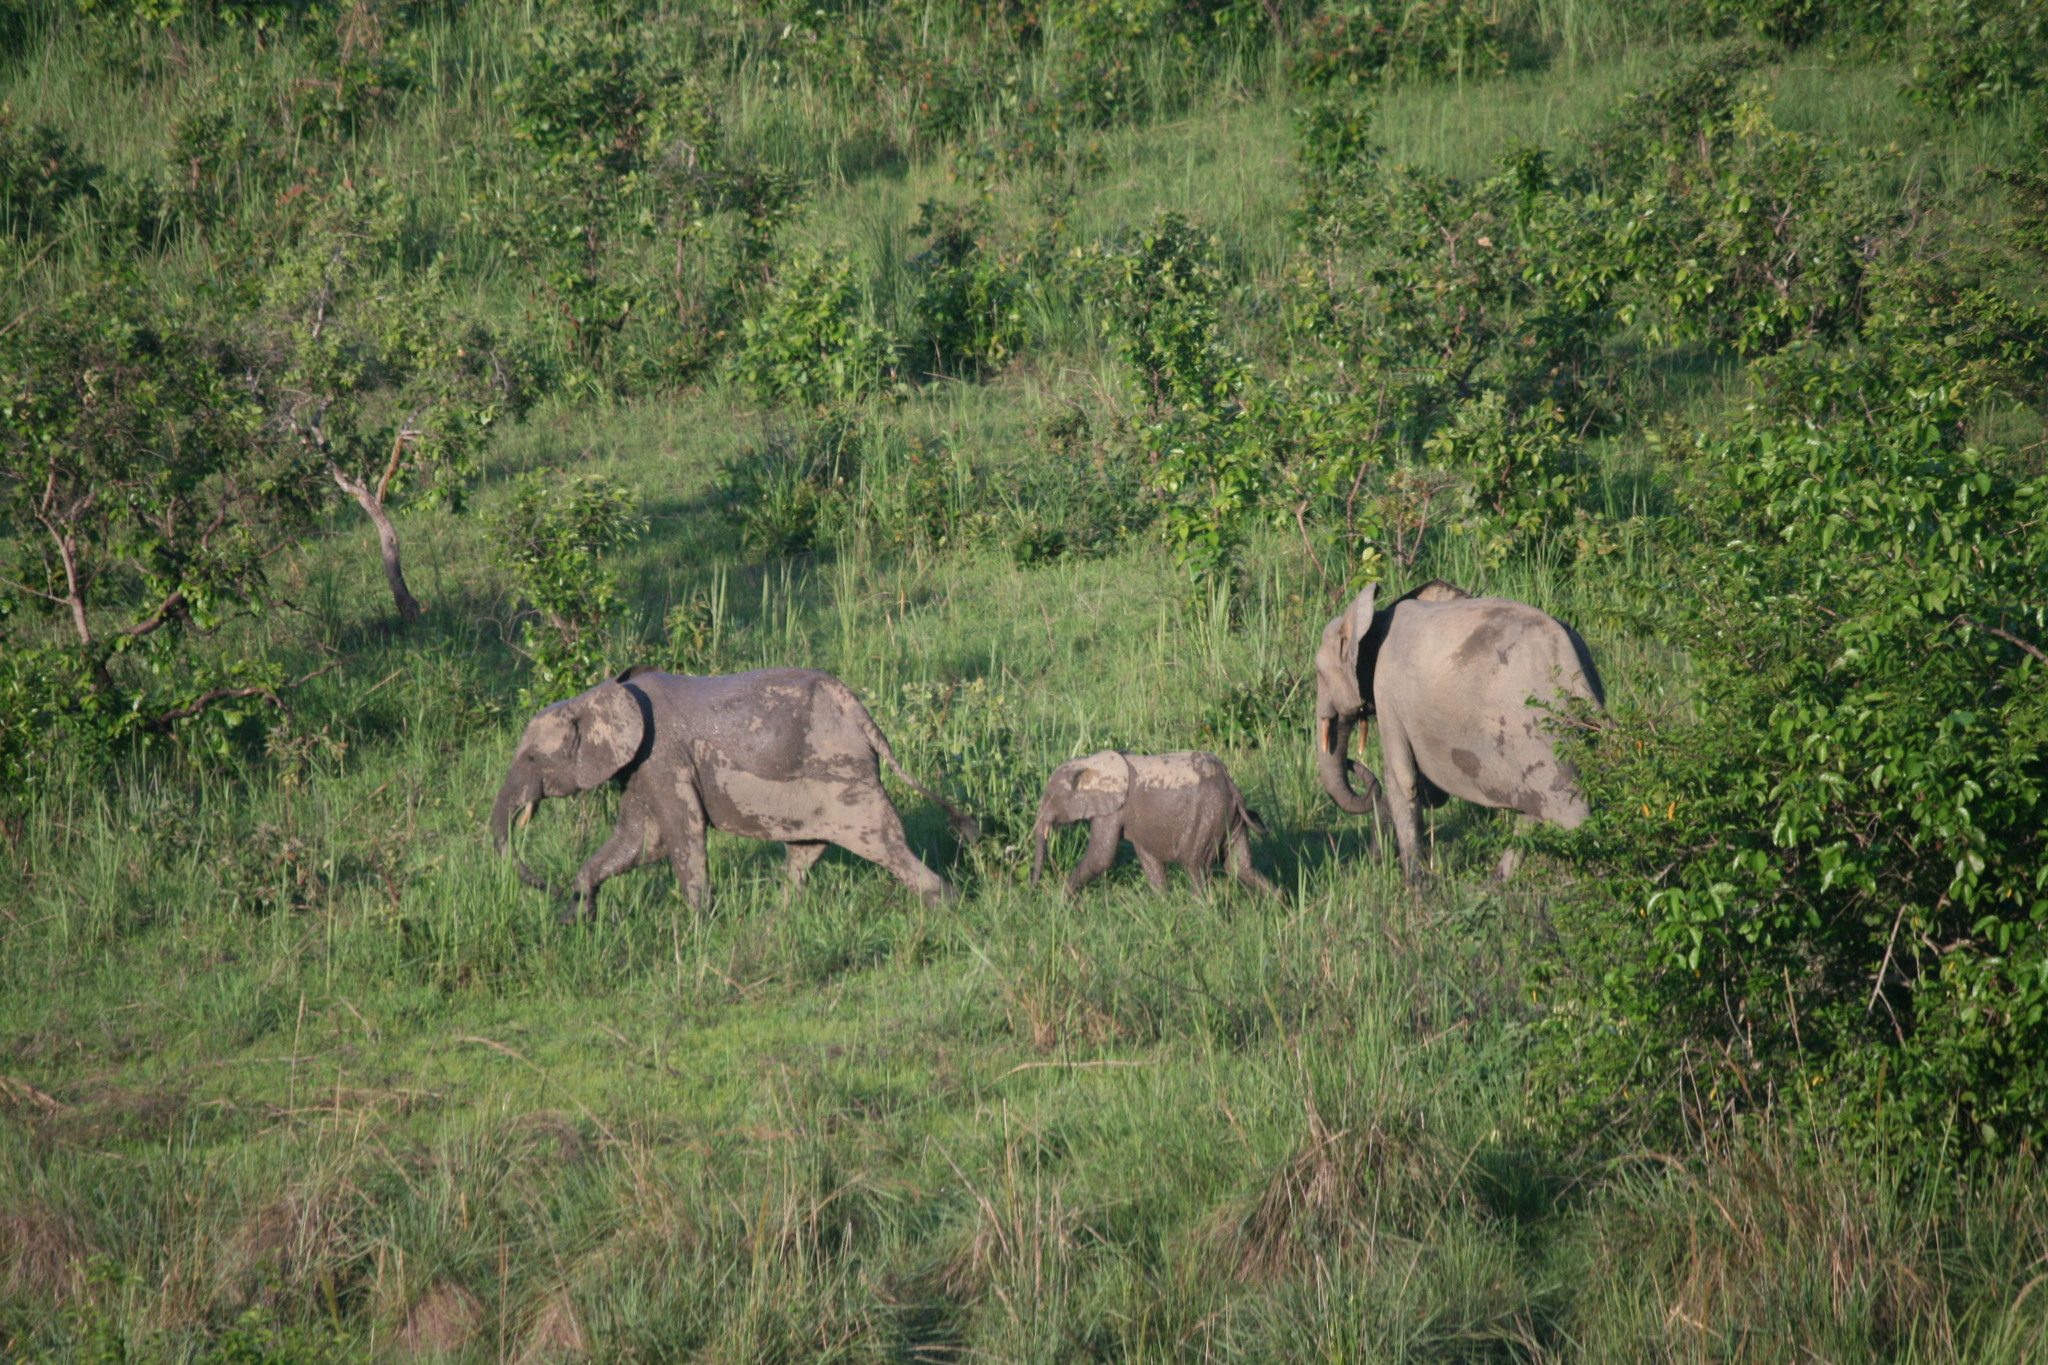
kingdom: Animalia
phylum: Chordata
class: Mammalia
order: Proboscidea
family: Elephantidae
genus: Loxodonta
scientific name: Loxodonta cyclotis
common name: African forest elephant
